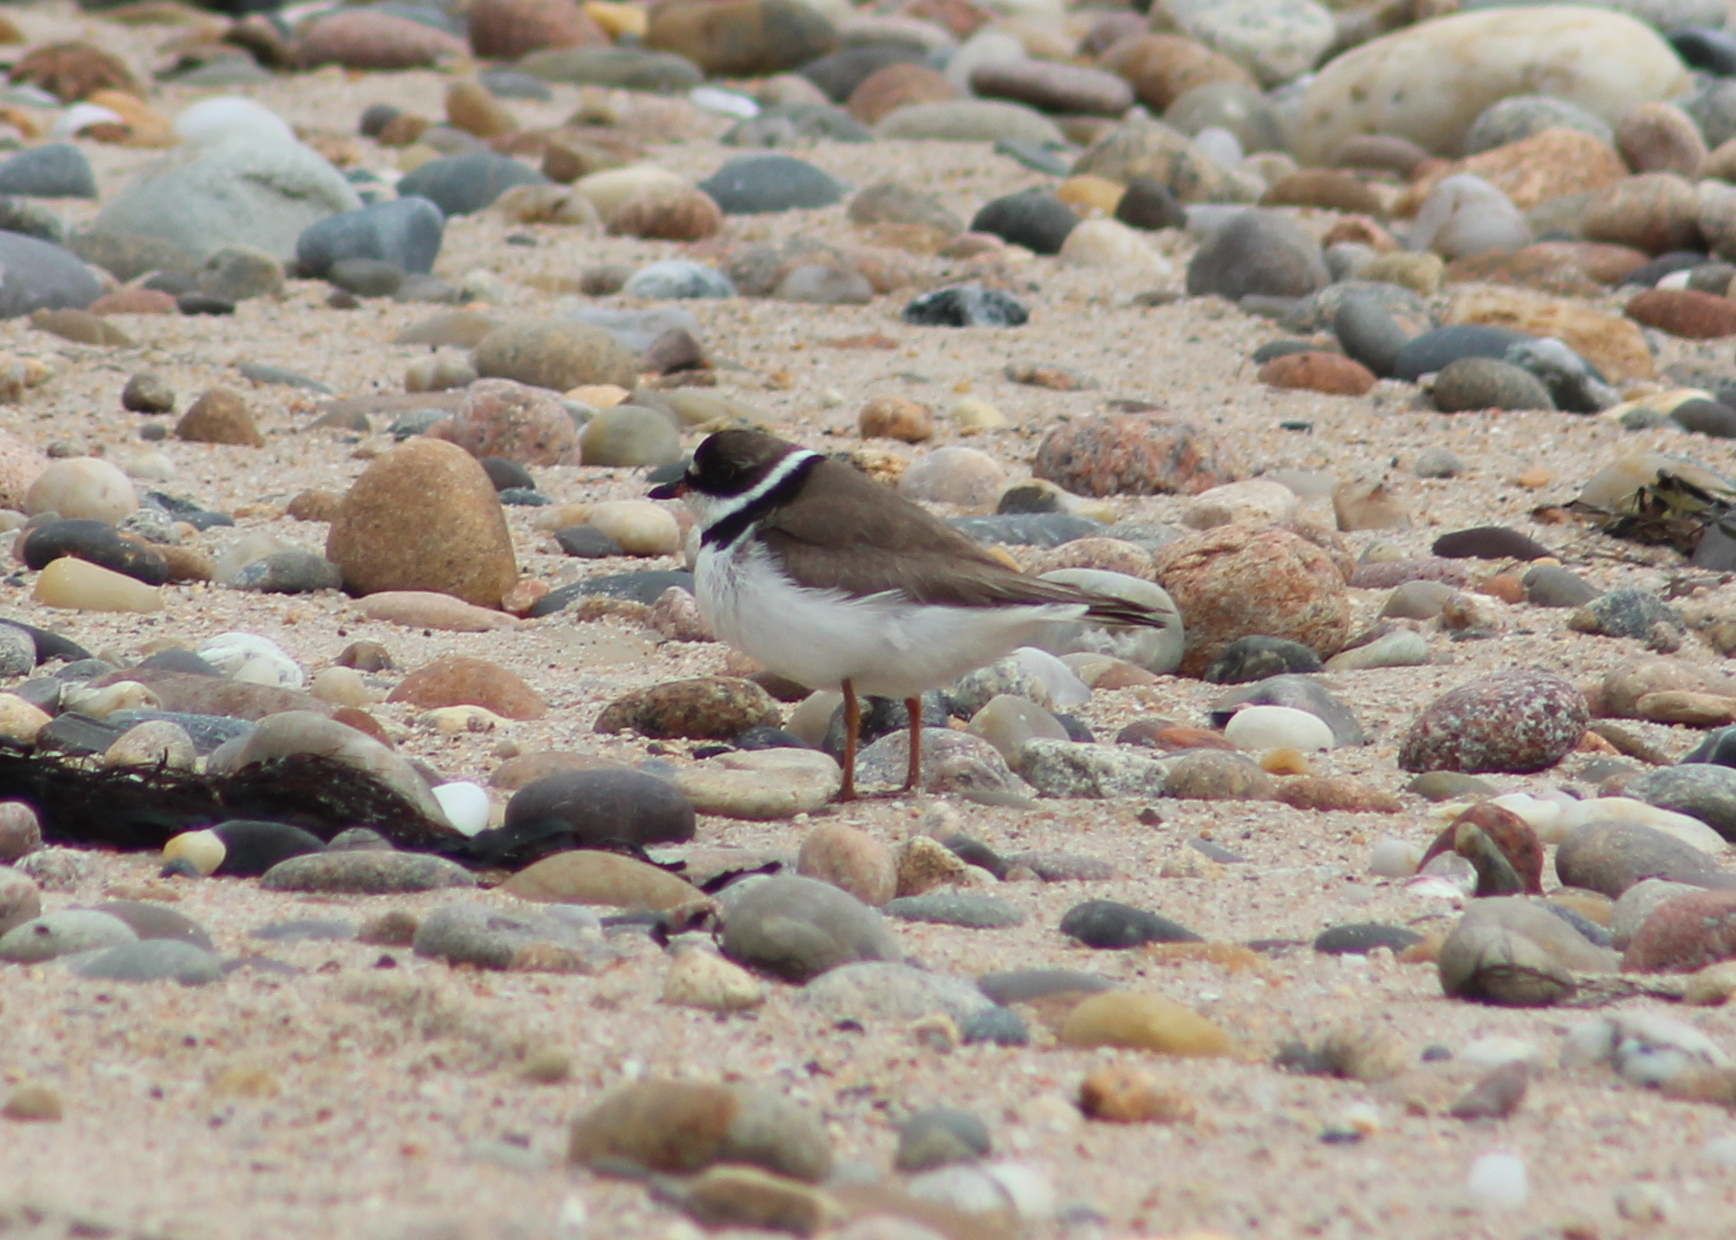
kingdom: Animalia
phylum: Chordata
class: Aves
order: Charadriiformes
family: Charadriidae
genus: Charadrius
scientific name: Charadrius semipalmatus
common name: Semipalmated plover
